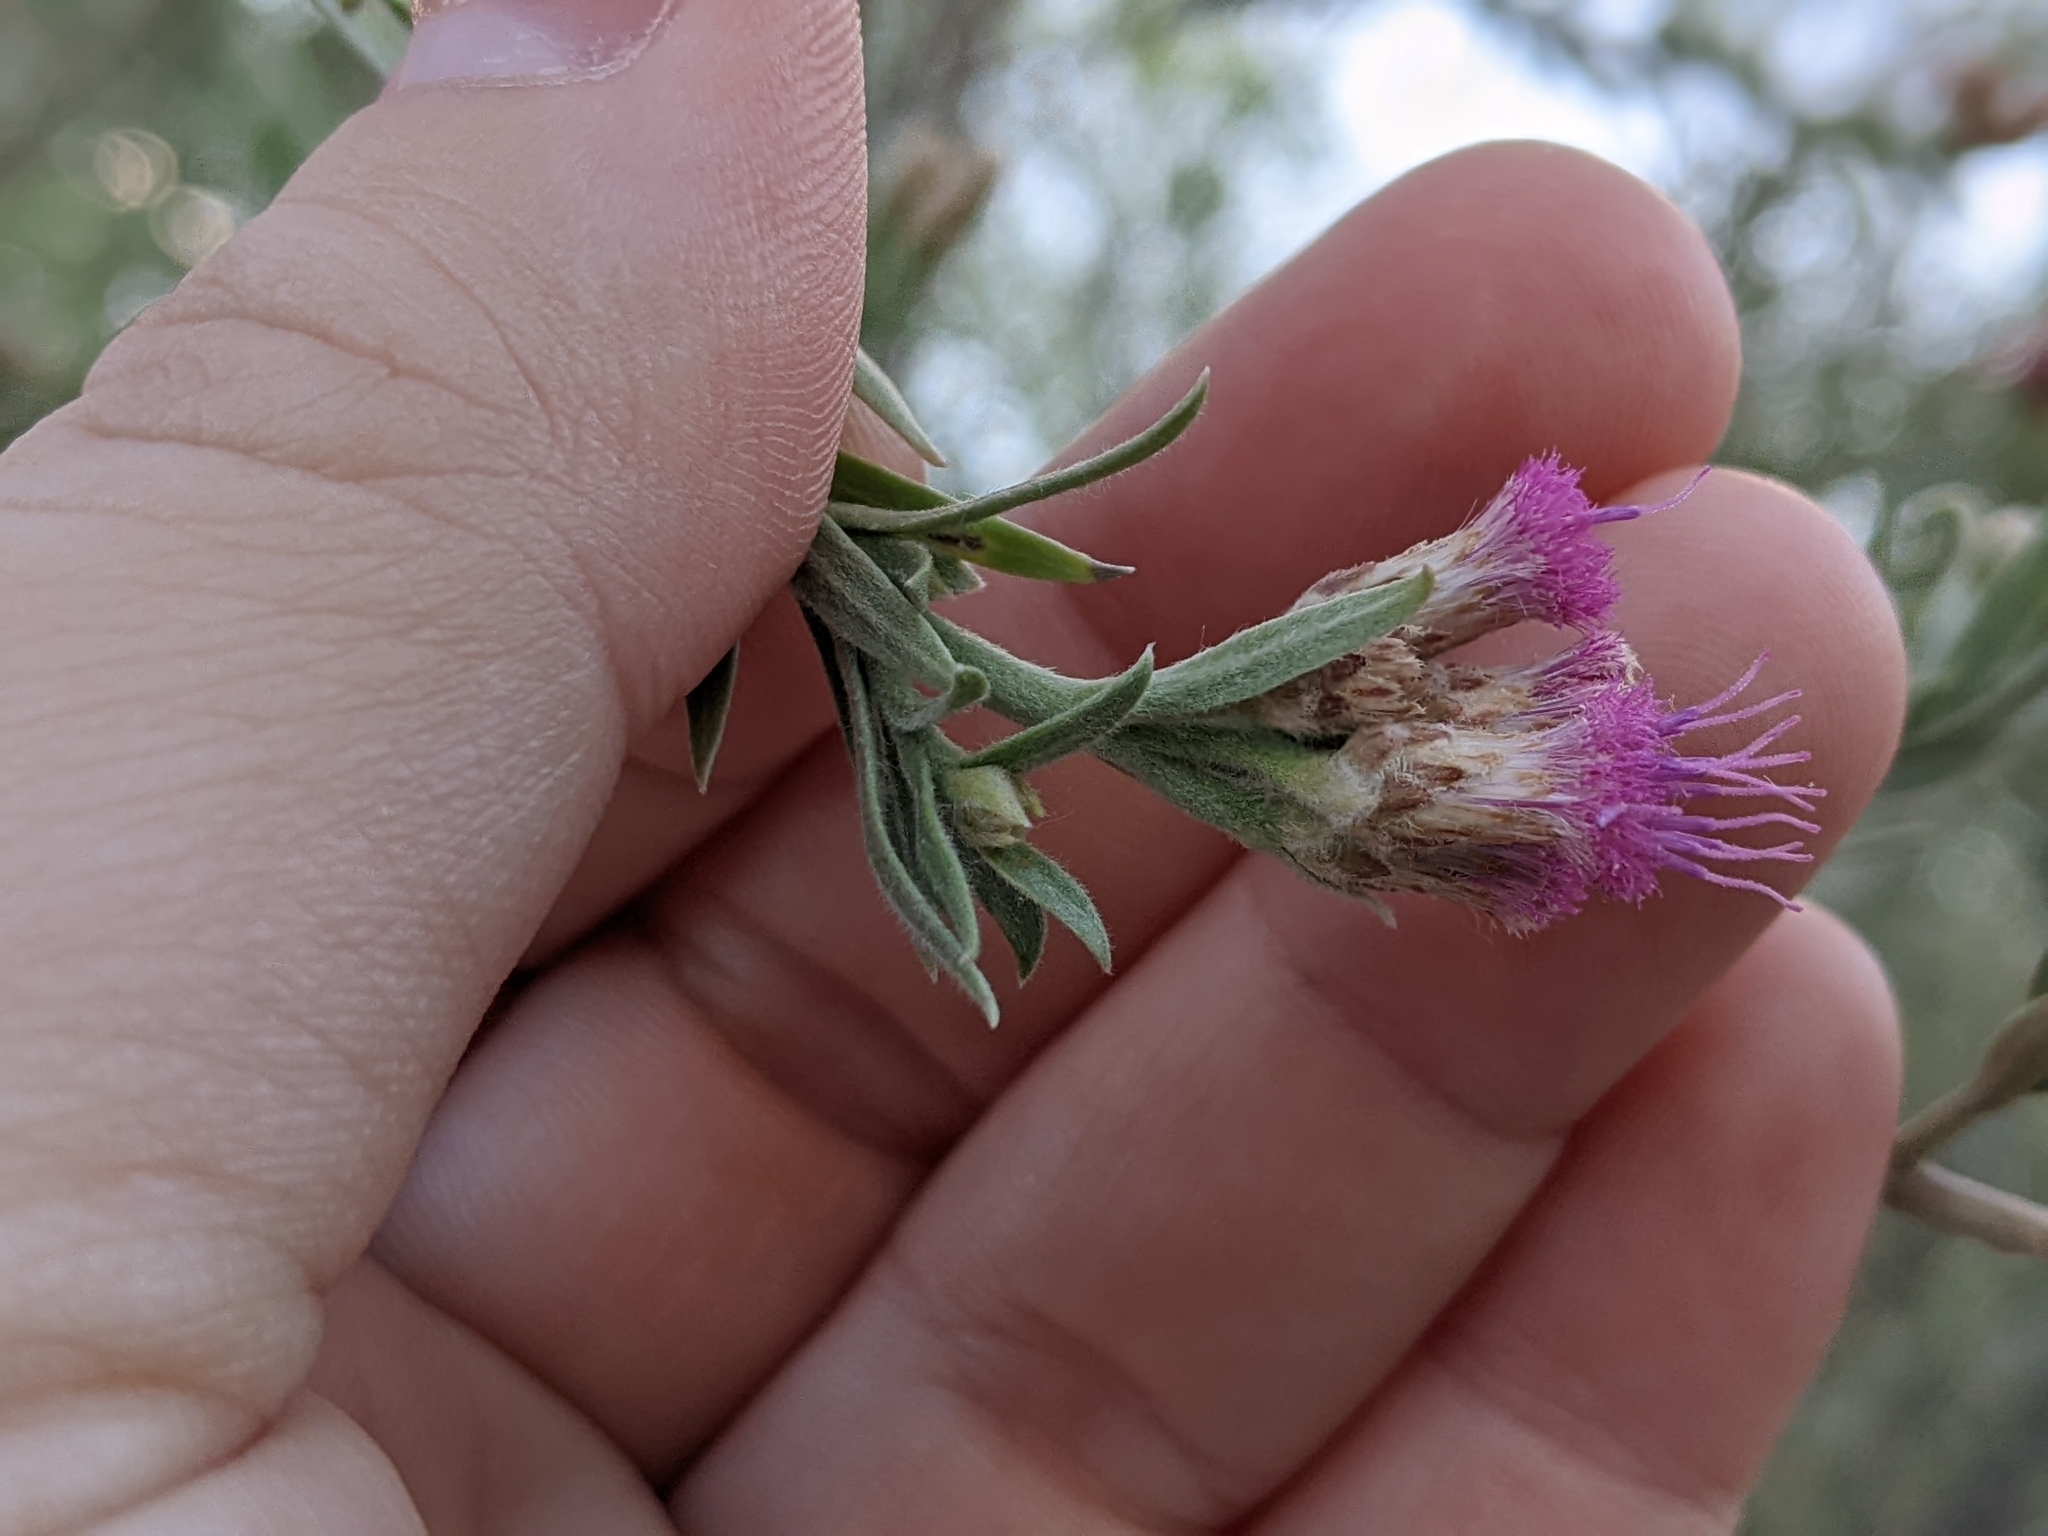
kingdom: Plantae
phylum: Tracheophyta
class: Magnoliopsida
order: Asterales
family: Asteraceae
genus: Pluchea
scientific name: Pluchea sericea
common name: Arrow-weed
